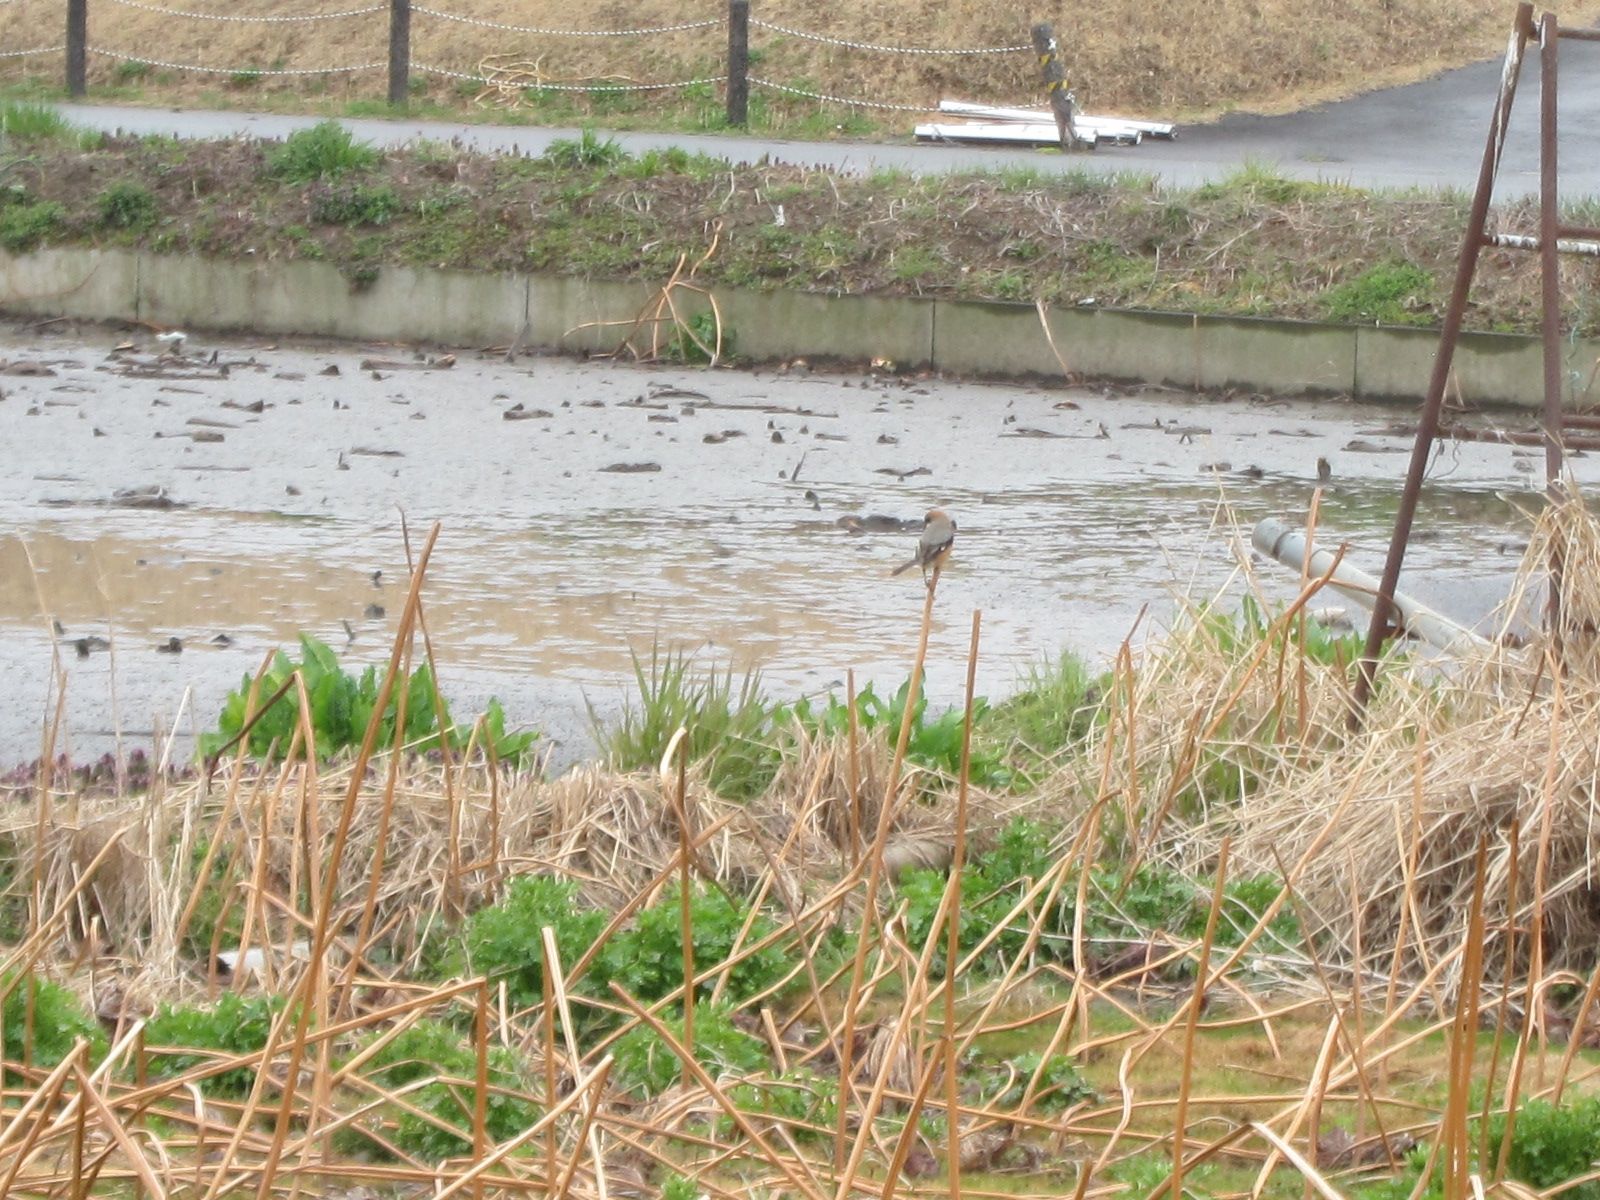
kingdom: Animalia
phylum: Chordata
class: Aves
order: Passeriformes
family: Laniidae
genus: Lanius
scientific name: Lanius bucephalus
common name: Bull-headed shrike
